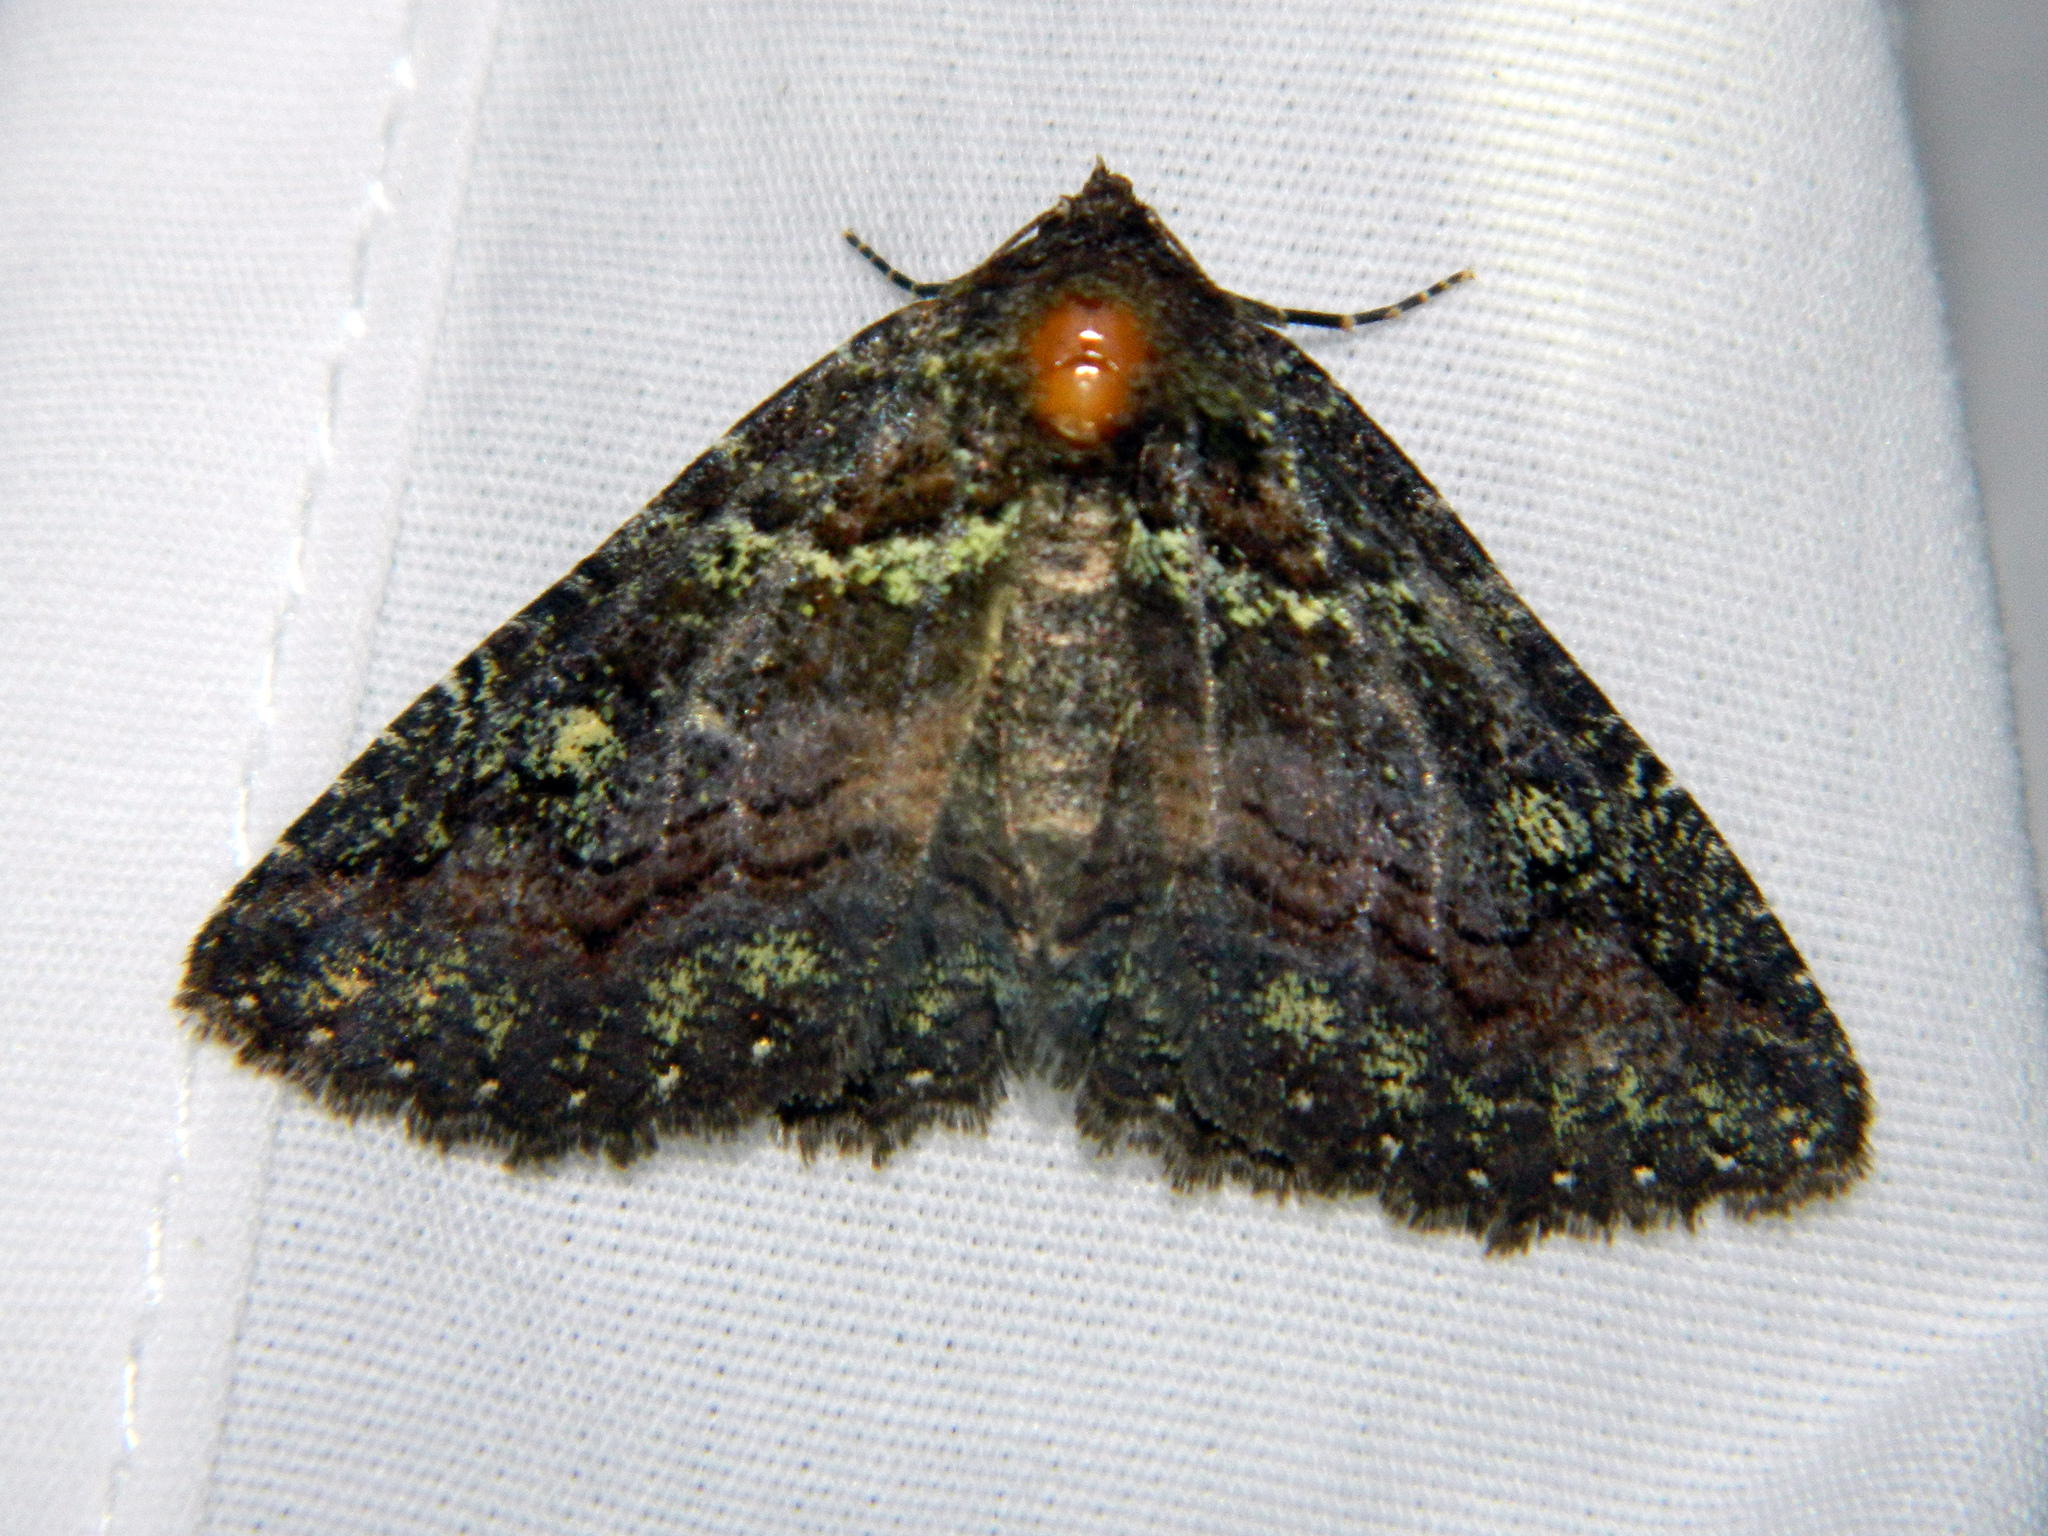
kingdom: Animalia
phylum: Arthropoda
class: Insecta
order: Lepidoptera
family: Erebidae
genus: Zale
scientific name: Zale aeruginosa
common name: Green-dusted zale moth
